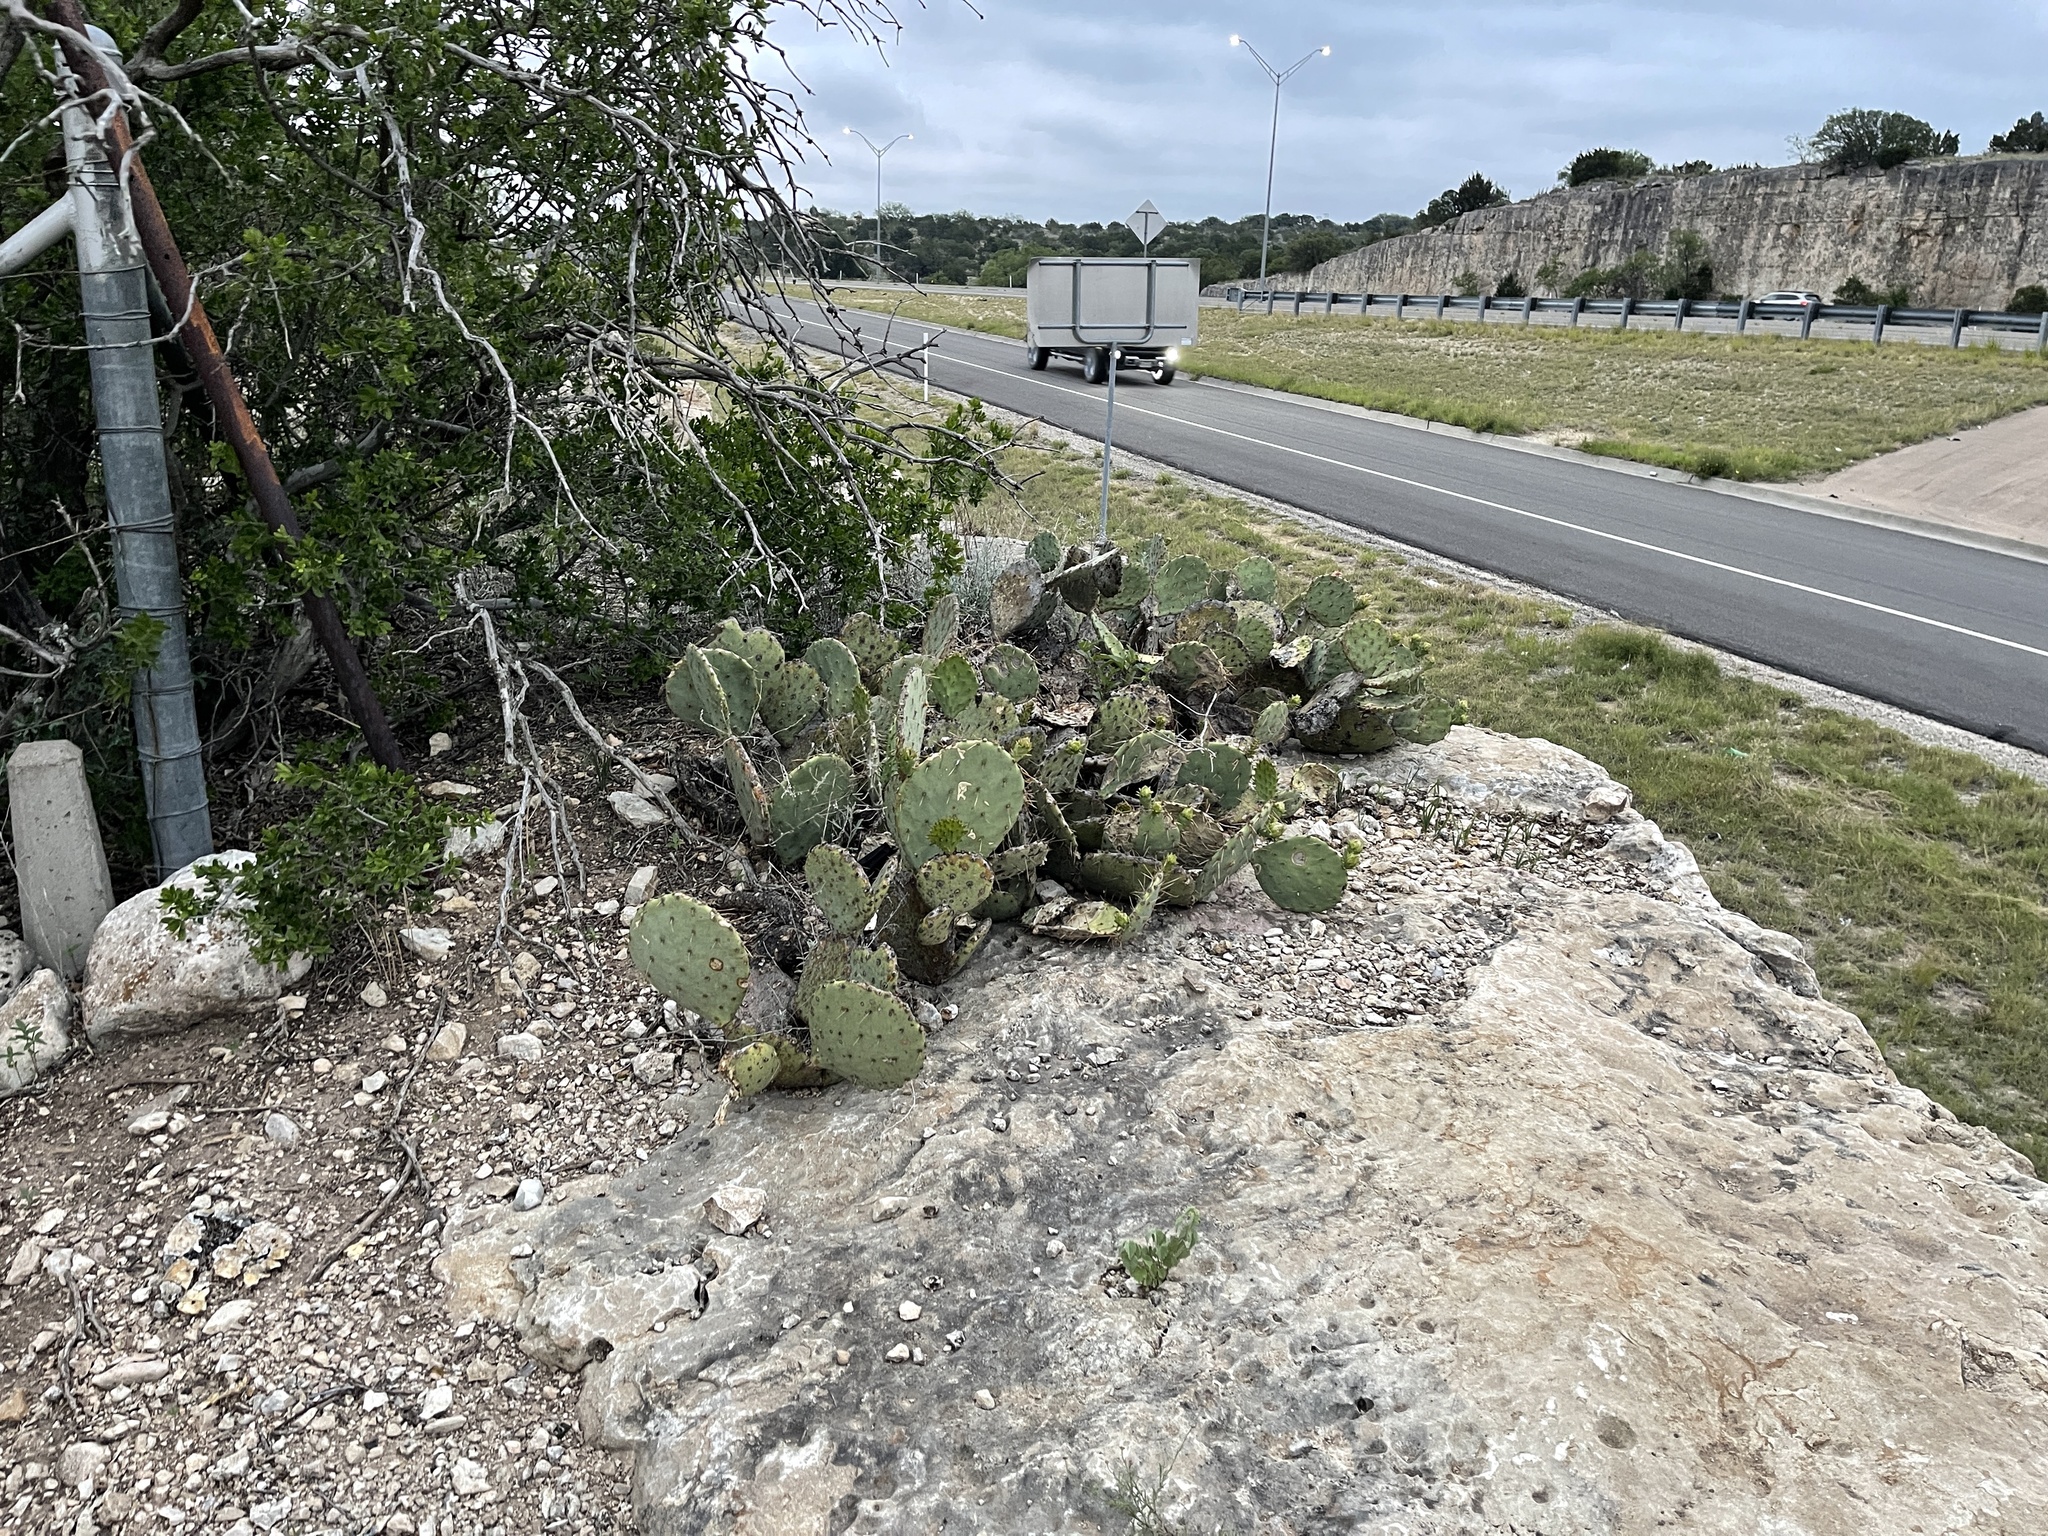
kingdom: Plantae
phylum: Tracheophyta
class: Magnoliopsida
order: Caryophyllales
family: Cactaceae
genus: Opuntia
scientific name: Opuntia engelmannii
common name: Cactus-apple
